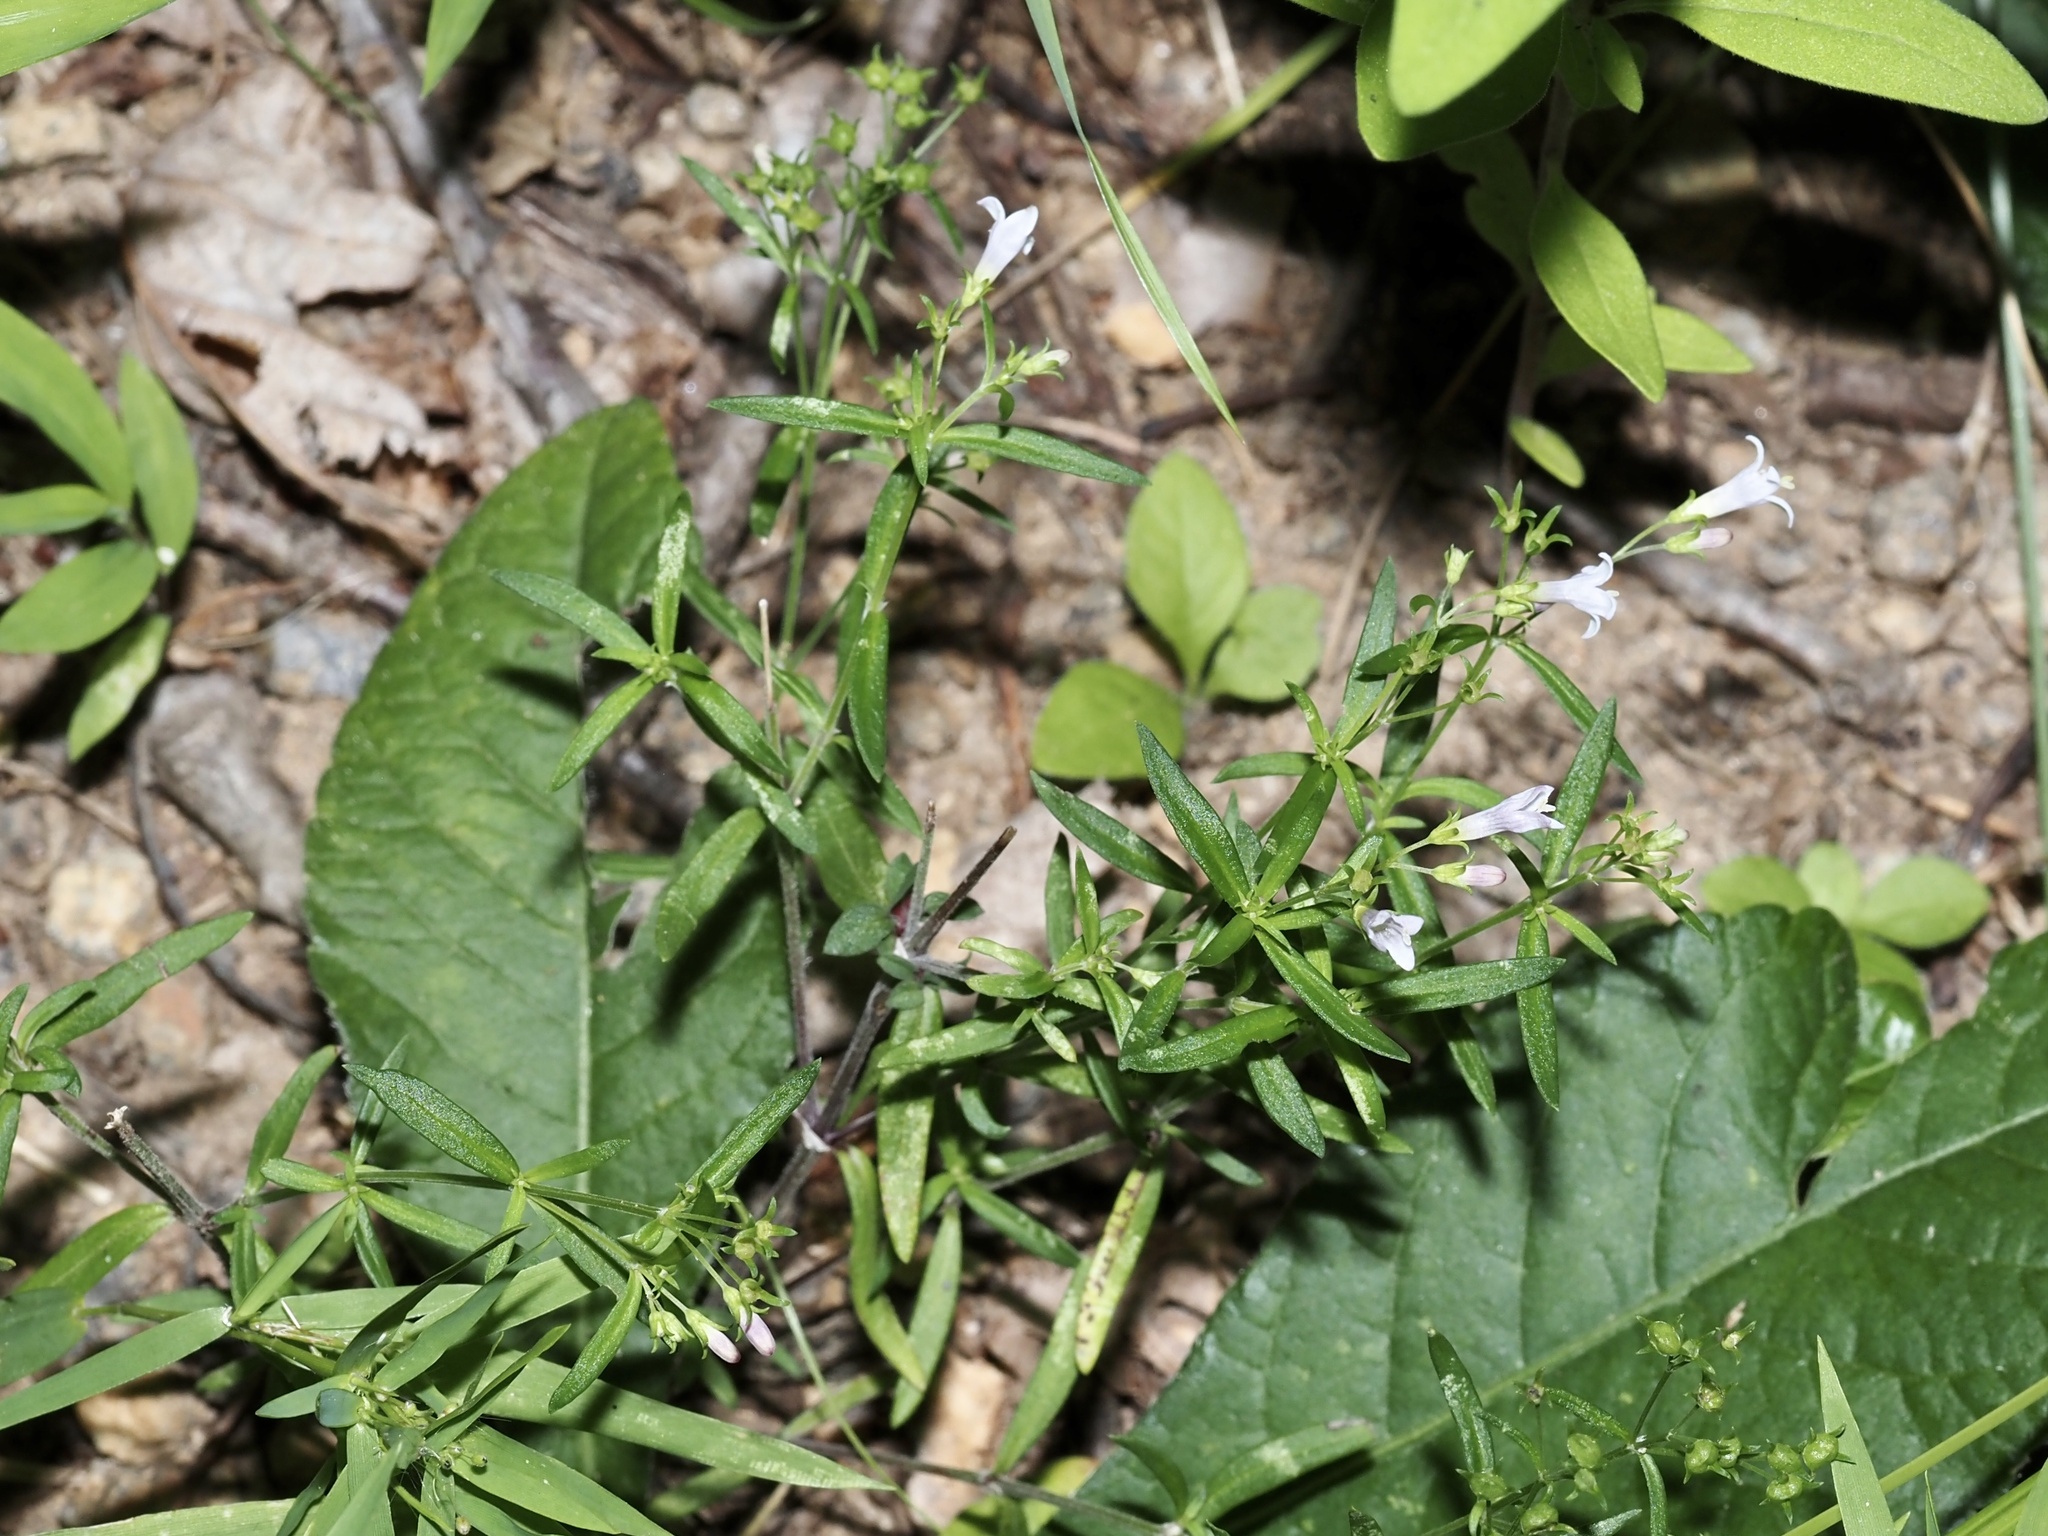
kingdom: Plantae
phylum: Tracheophyta
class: Magnoliopsida
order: Gentianales
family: Rubiaceae
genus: Houstonia
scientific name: Houstonia longifolia
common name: Long-leaved bluets
